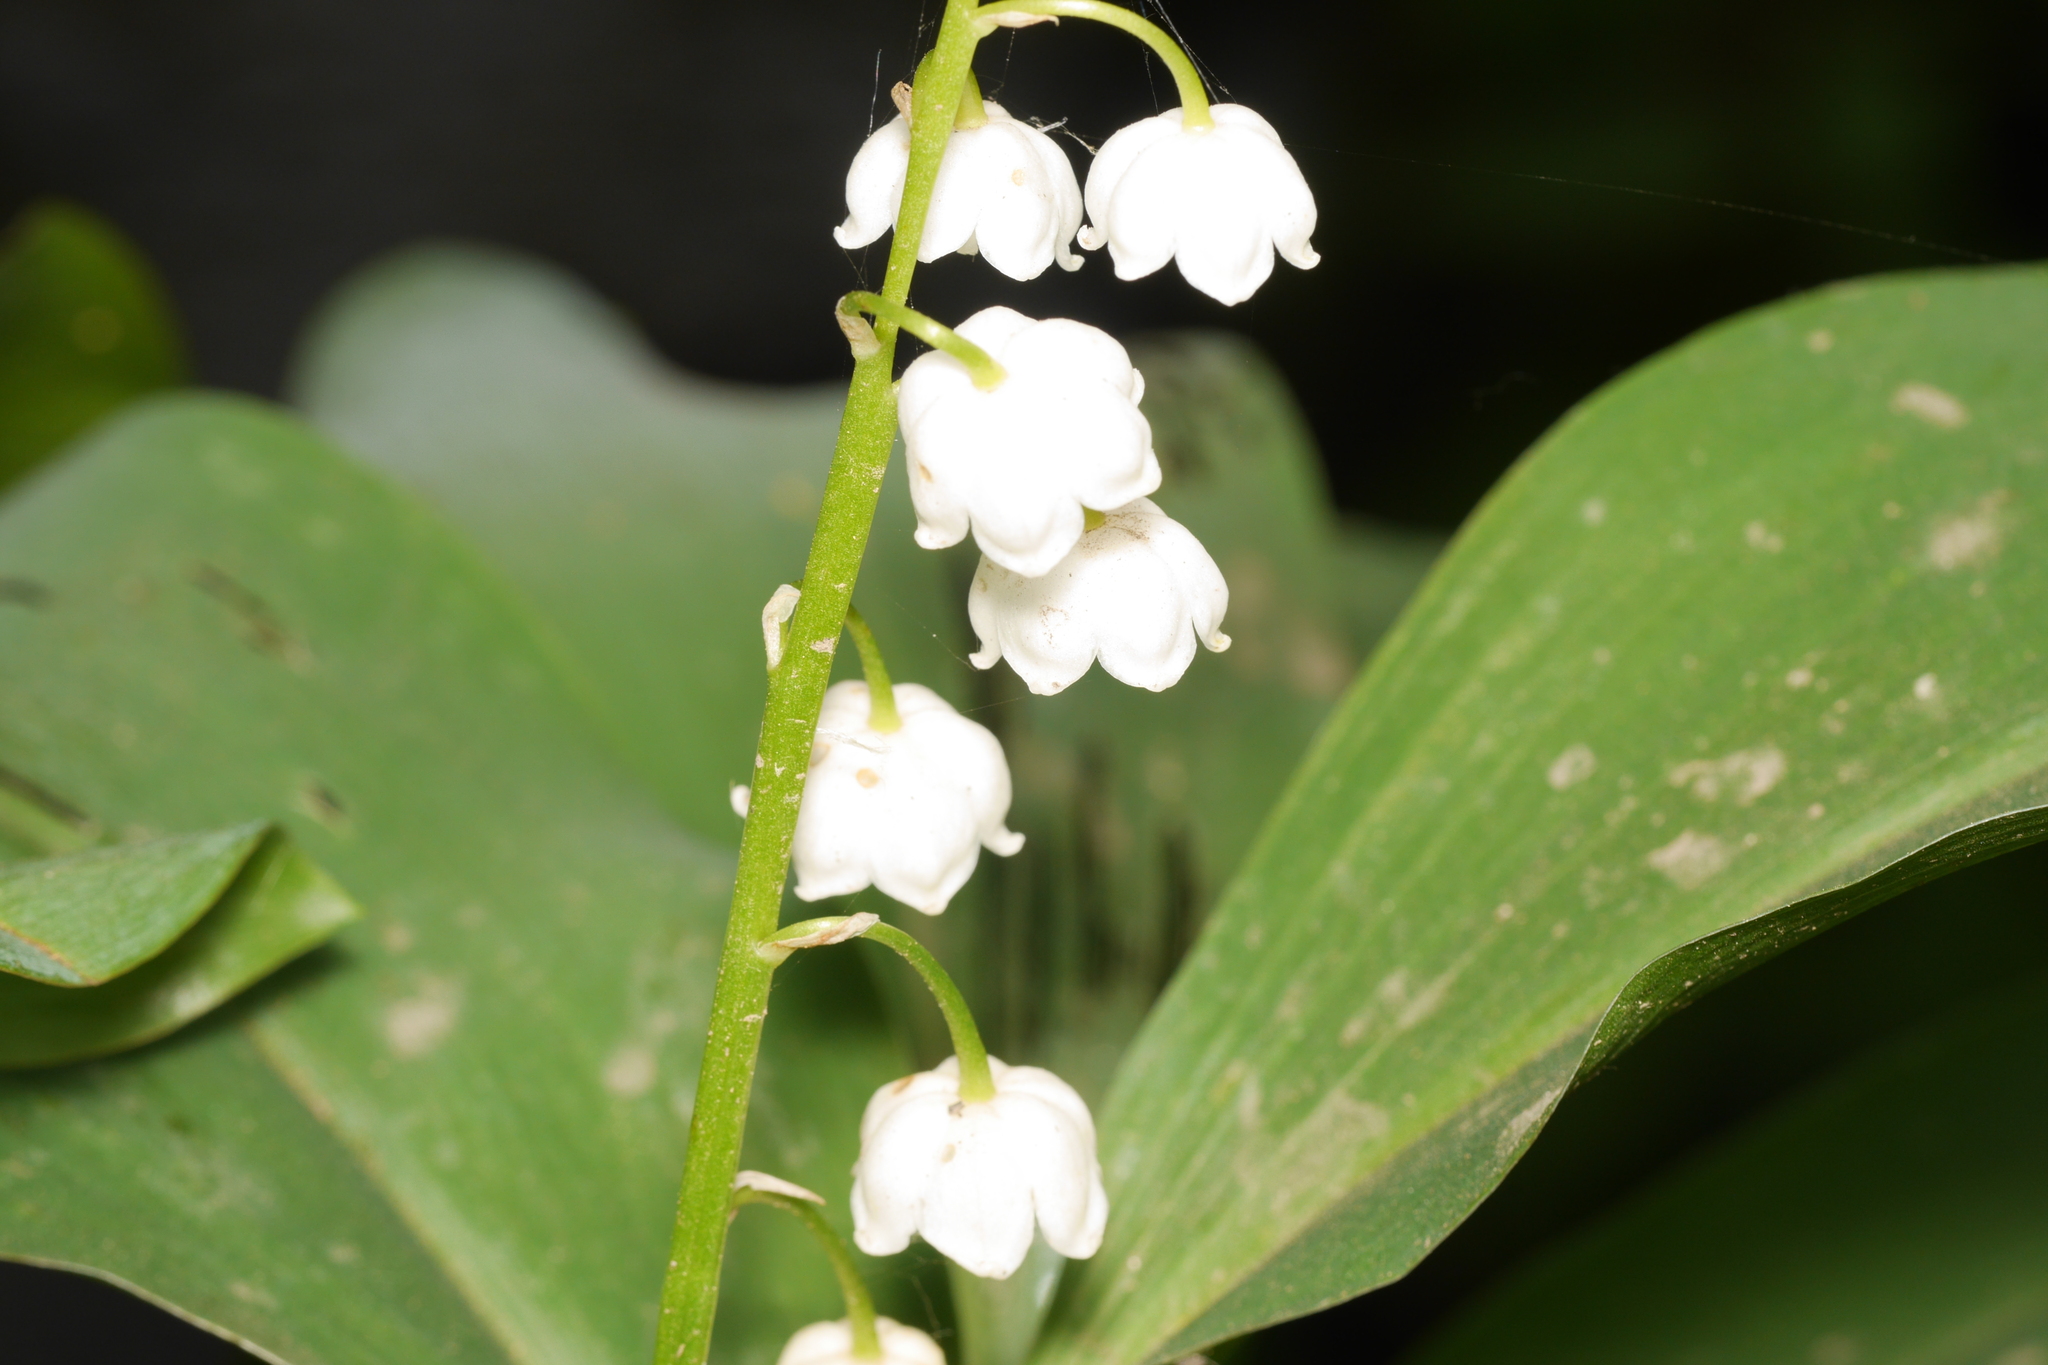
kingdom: Plantae
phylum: Tracheophyta
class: Liliopsida
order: Asparagales
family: Asparagaceae
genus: Convallaria
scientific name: Convallaria majalis
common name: Lily-of-the-valley
